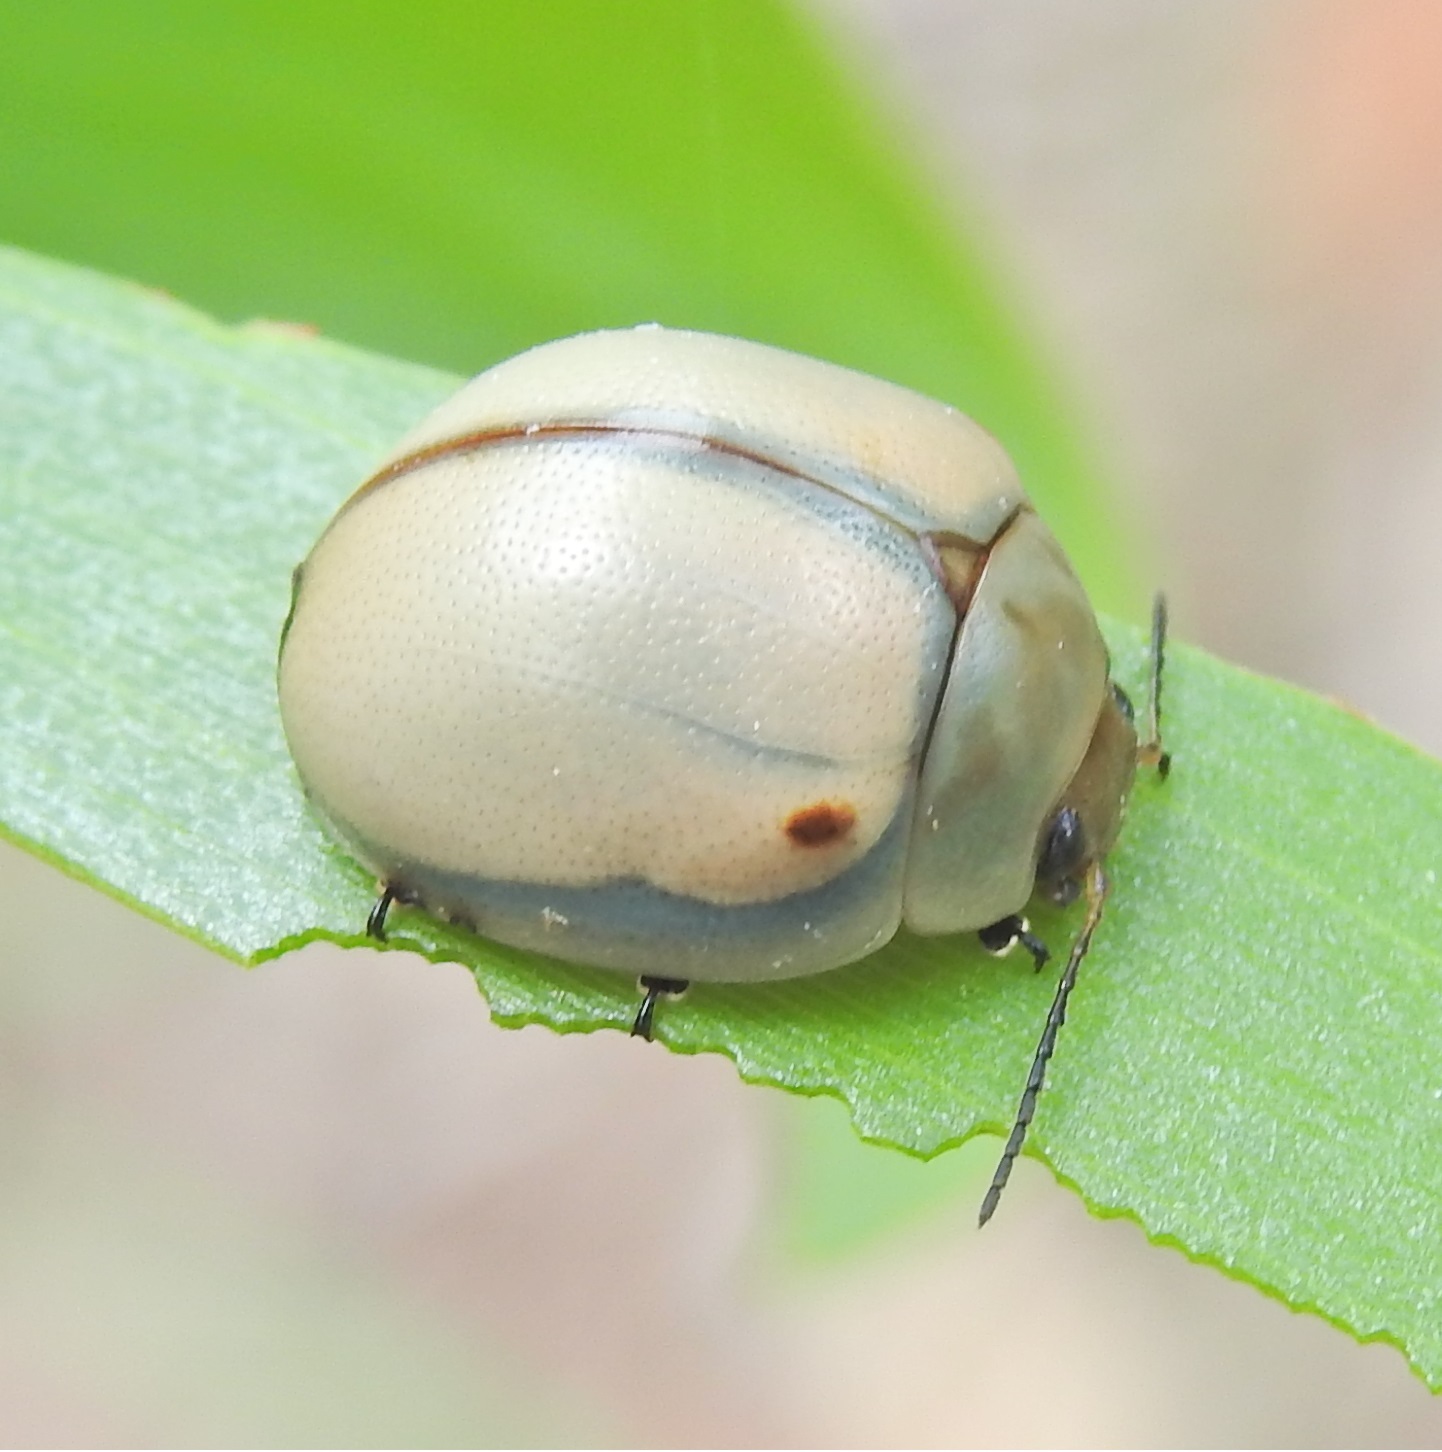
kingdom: Animalia
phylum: Arthropoda
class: Insecta
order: Coleoptera
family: Chrysomelidae
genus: Dicranosterna
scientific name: Dicranosterna
